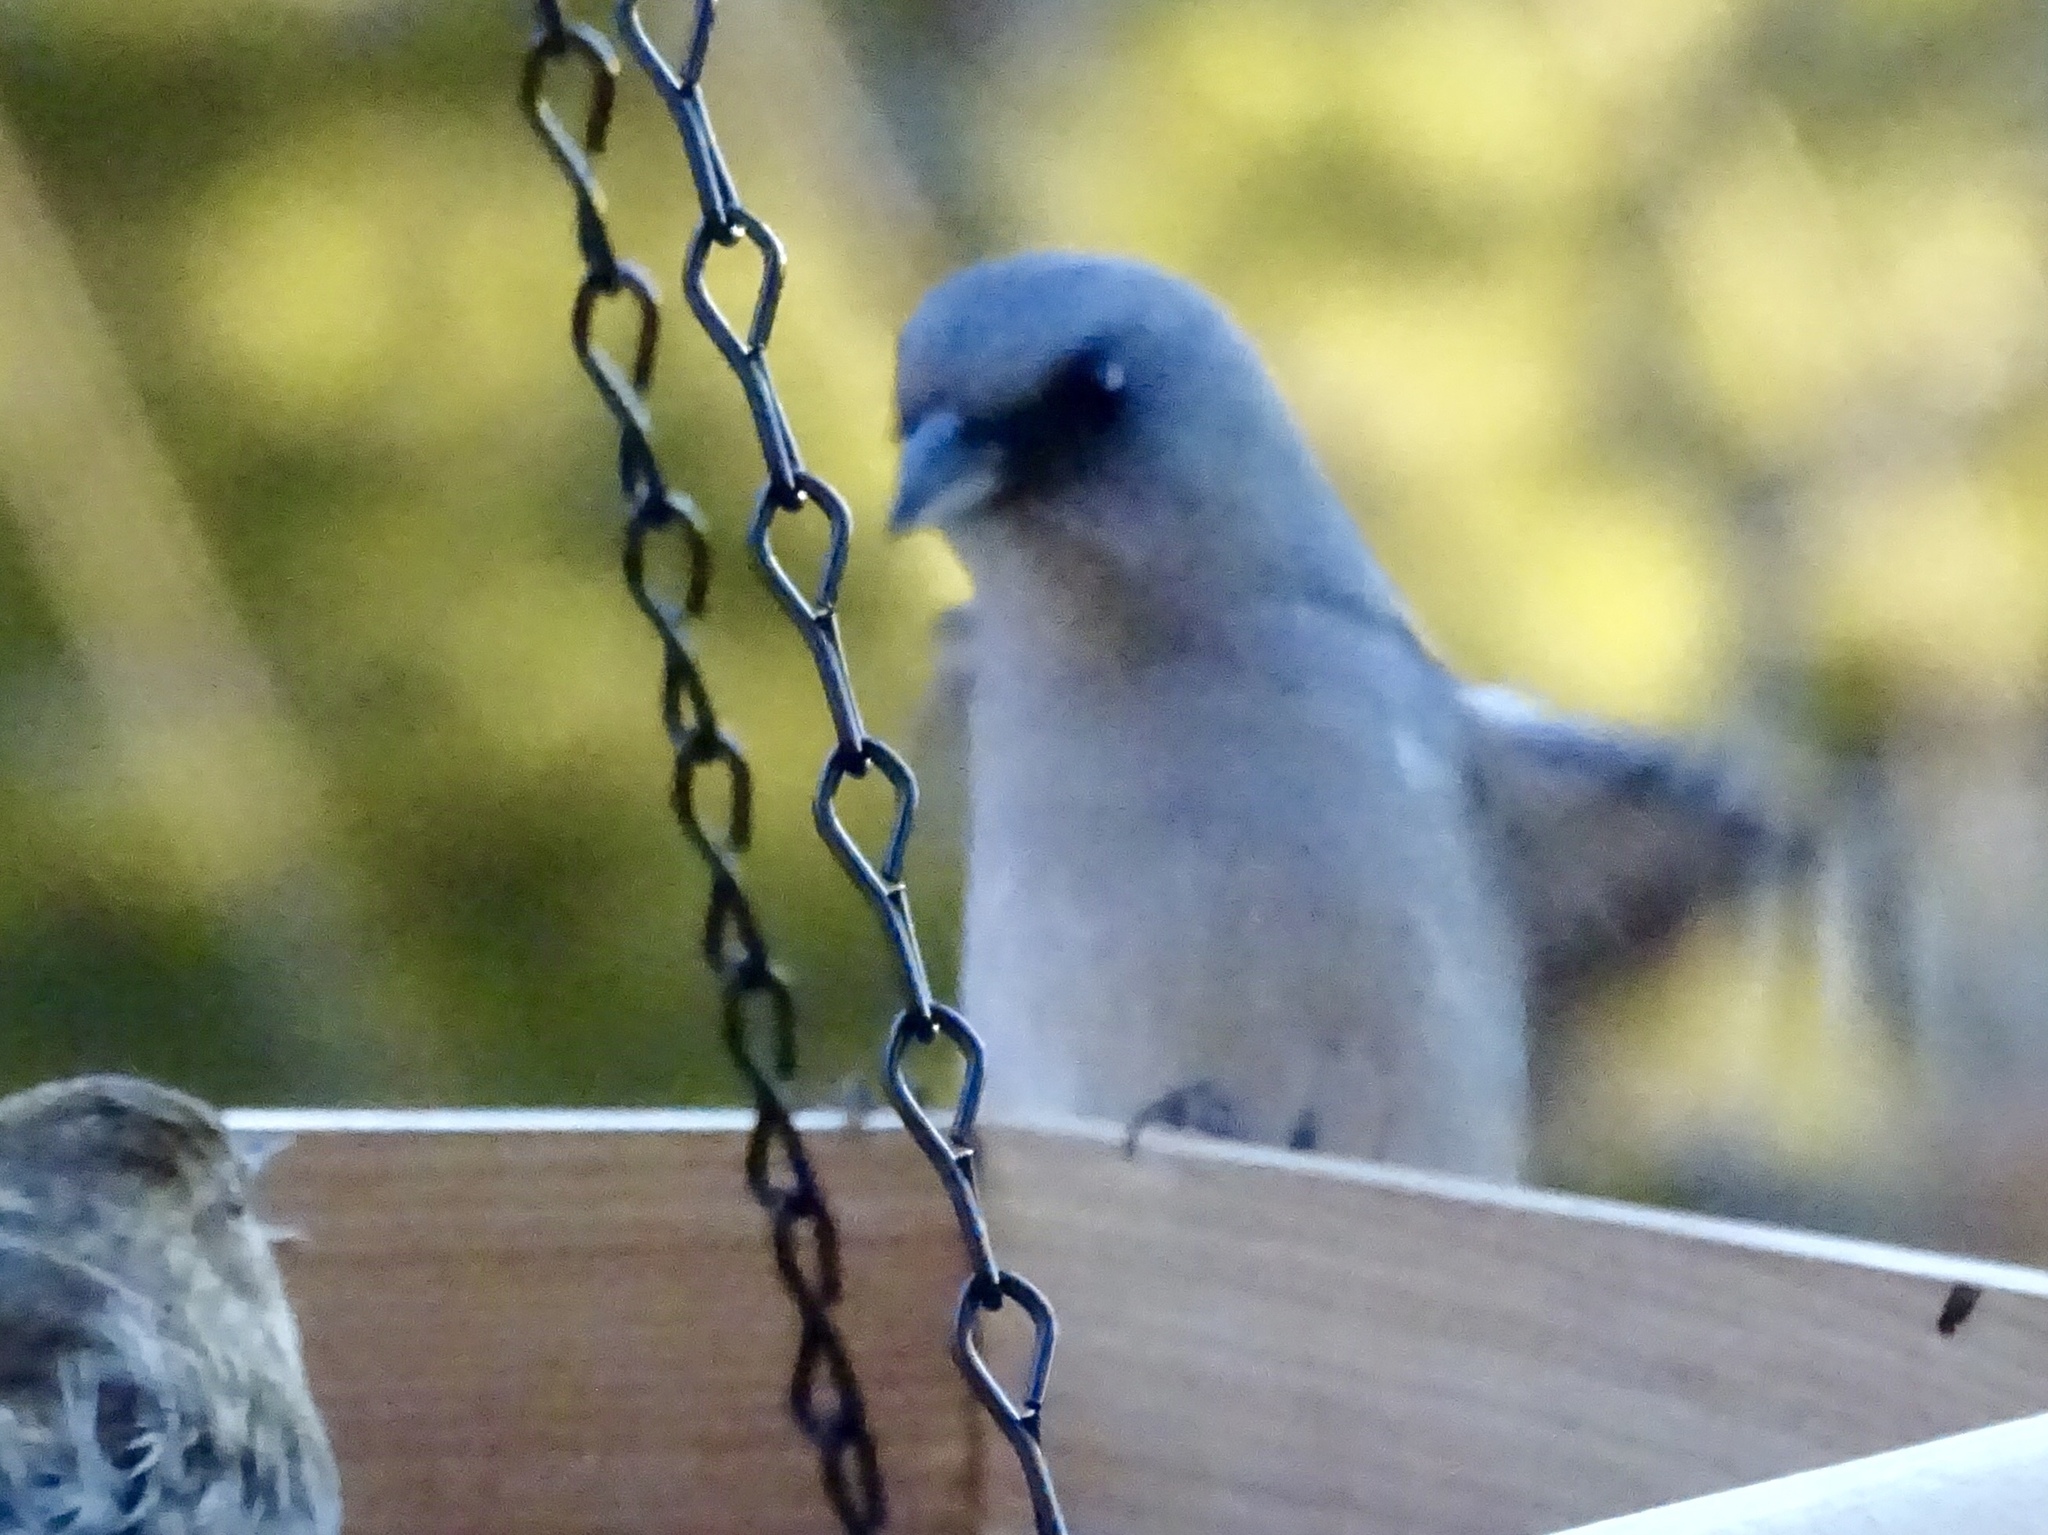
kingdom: Animalia
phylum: Chordata
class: Aves
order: Passeriformes
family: Passerellidae
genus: Junco
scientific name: Junco hyemalis
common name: Dark-eyed junco
